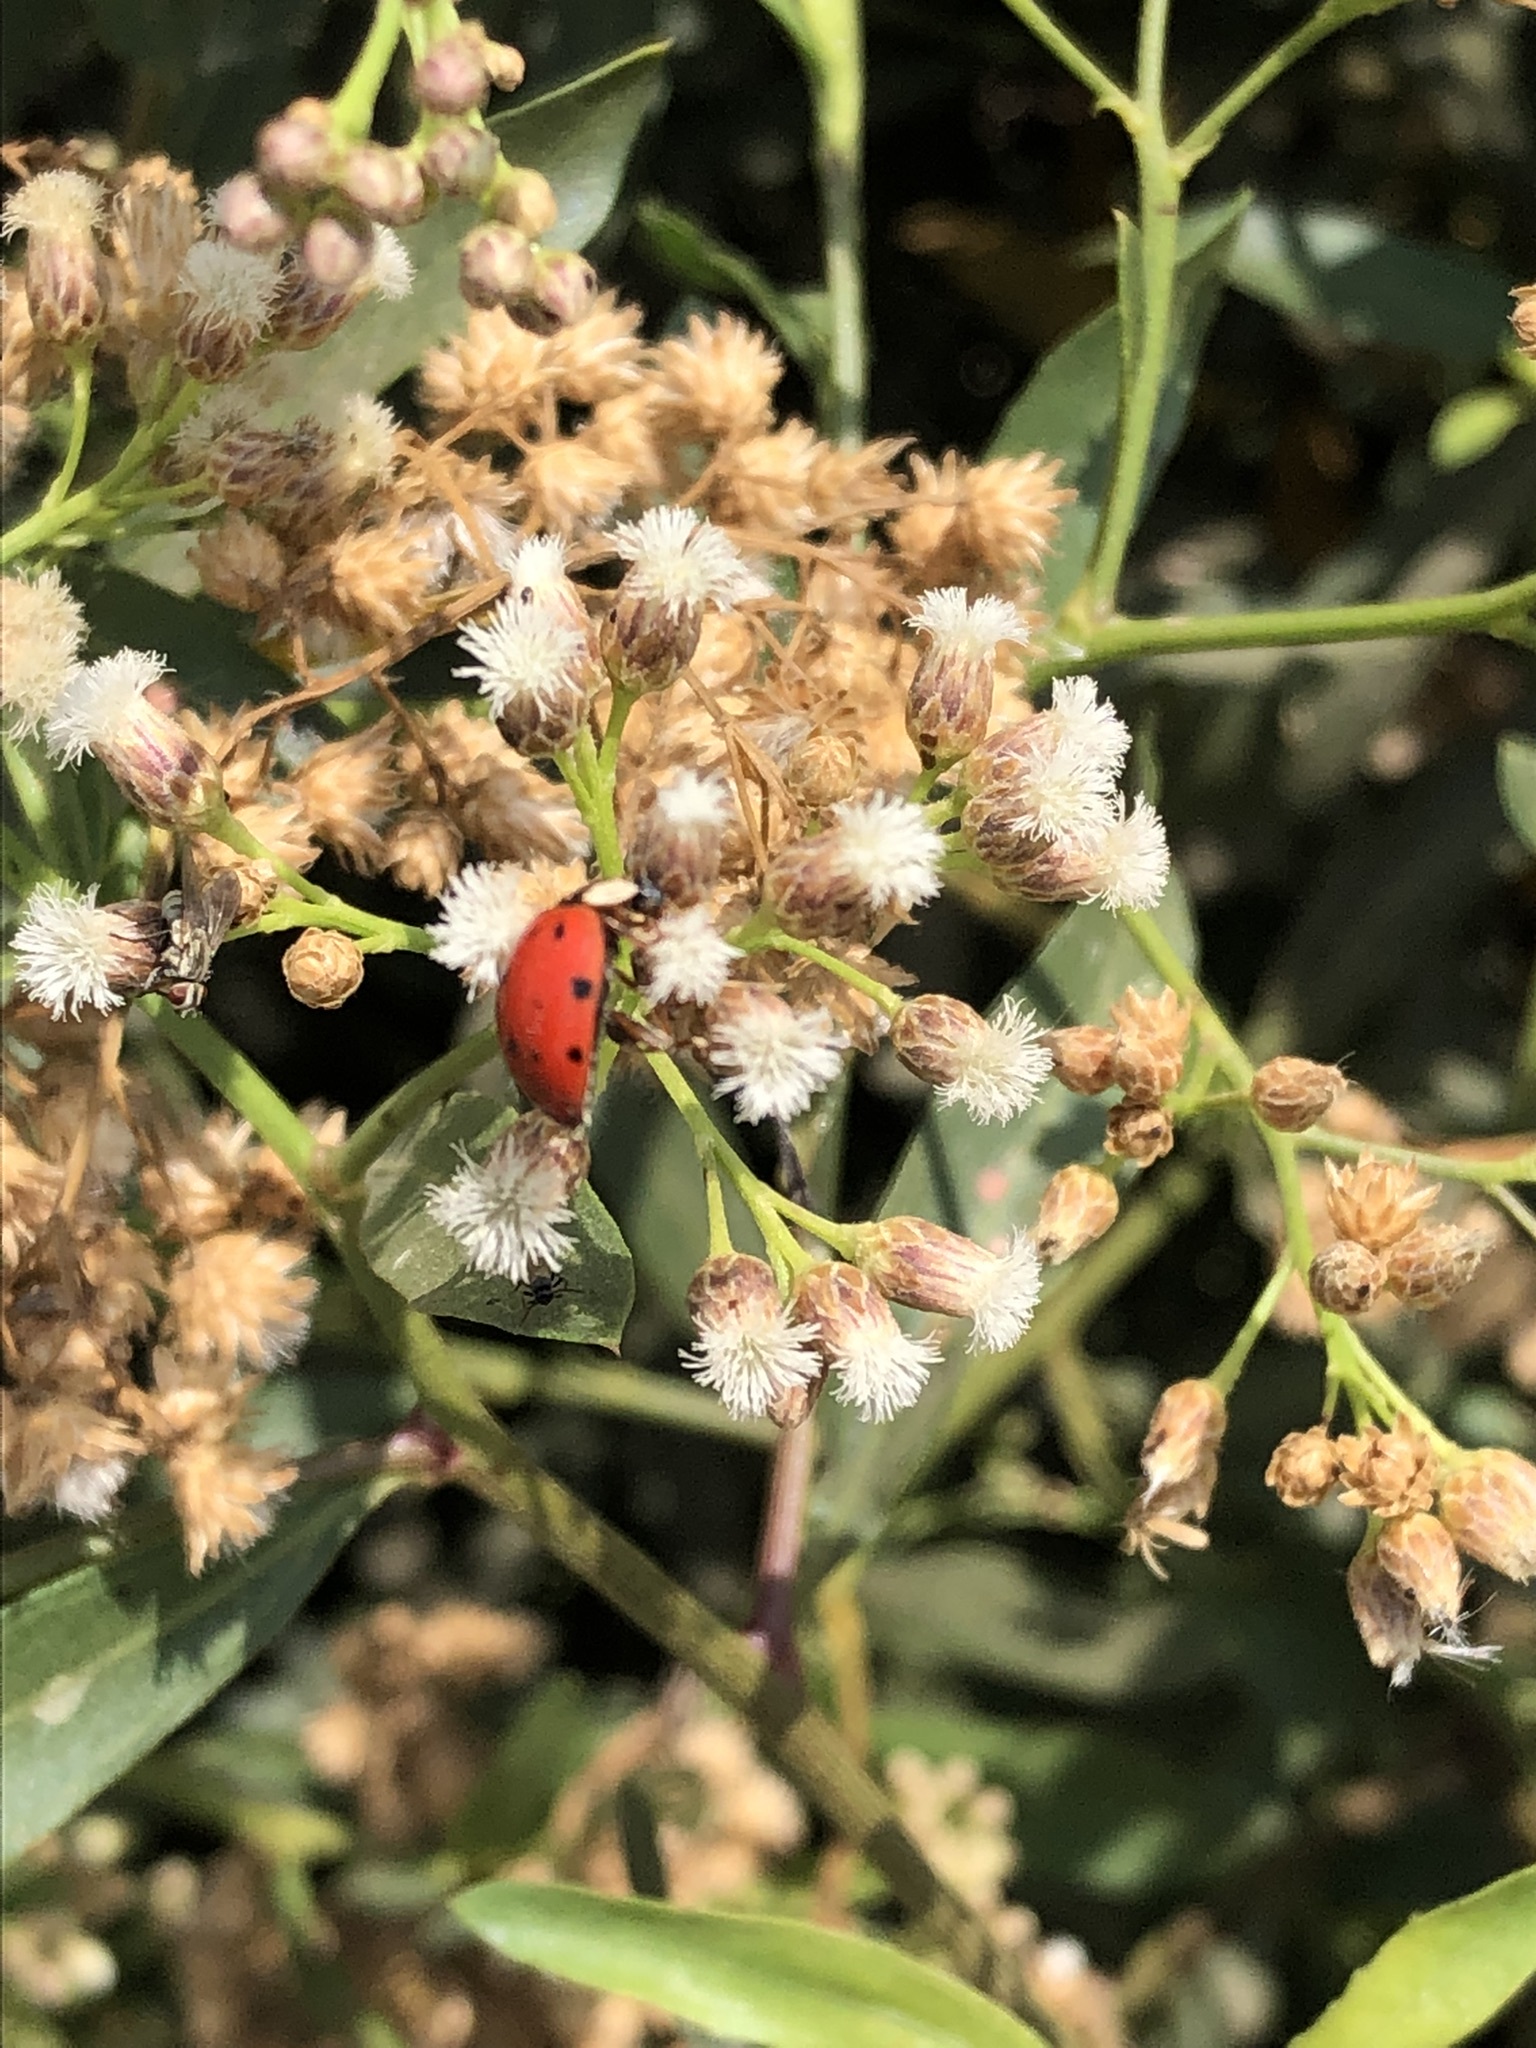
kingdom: Animalia
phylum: Arthropoda
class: Insecta
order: Coleoptera
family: Coccinellidae
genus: Harmonia
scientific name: Harmonia axyridis
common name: Harlequin ladybird
